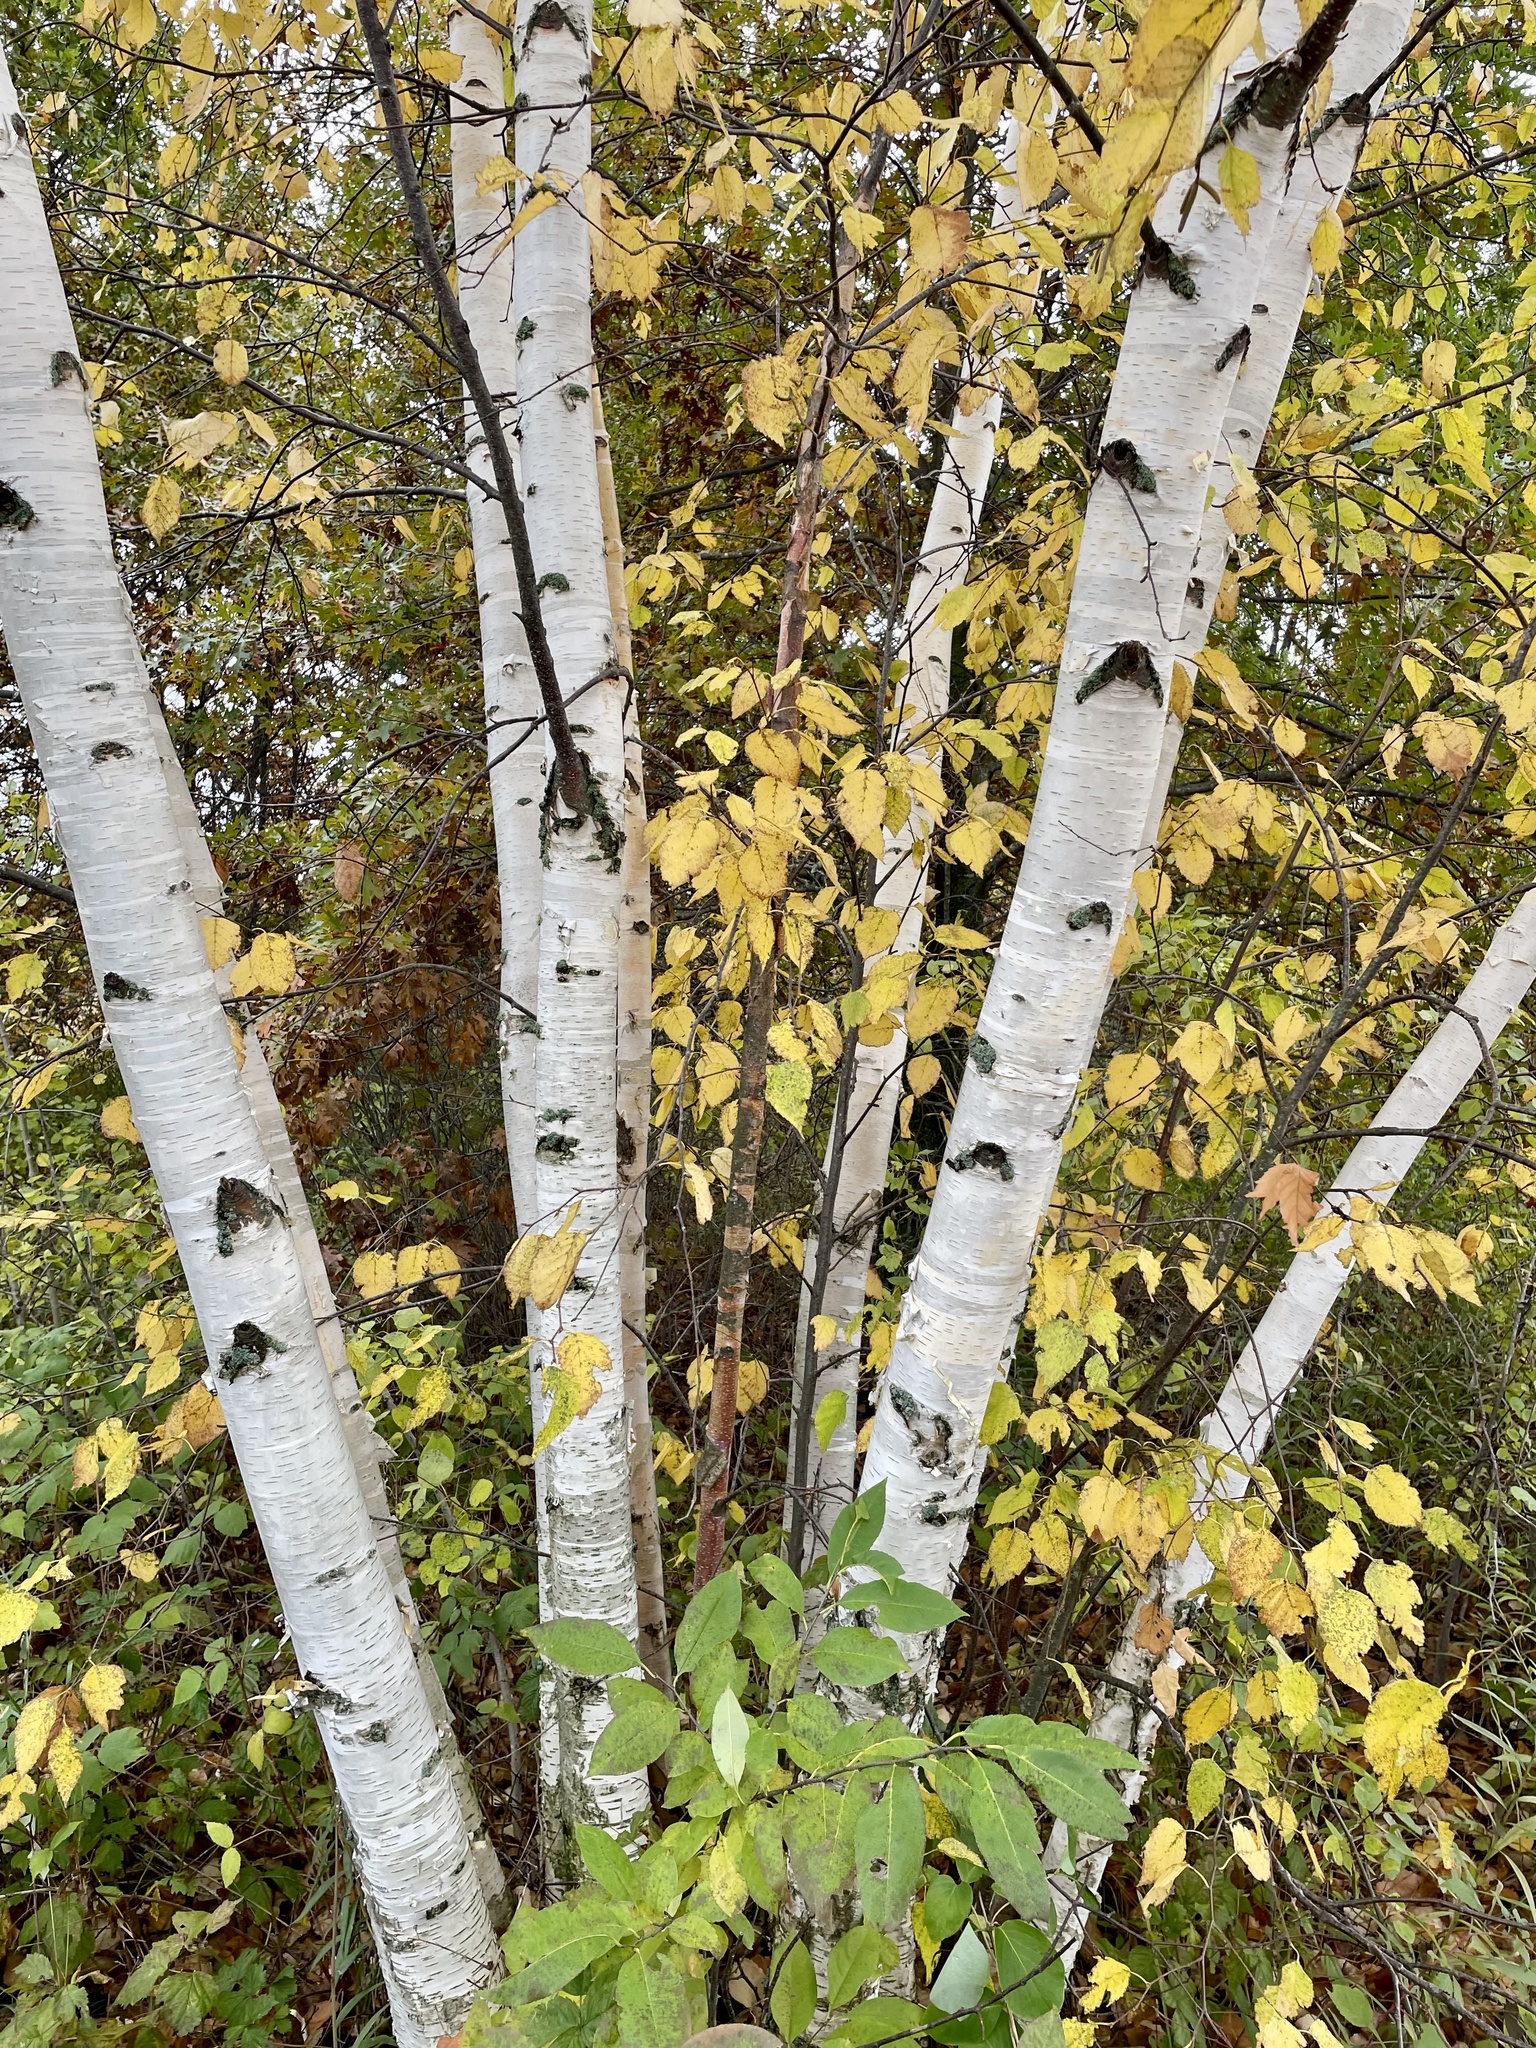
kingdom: Plantae
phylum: Tracheophyta
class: Magnoliopsida
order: Fagales
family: Betulaceae
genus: Betula
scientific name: Betula papyrifera
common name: Paper birch
